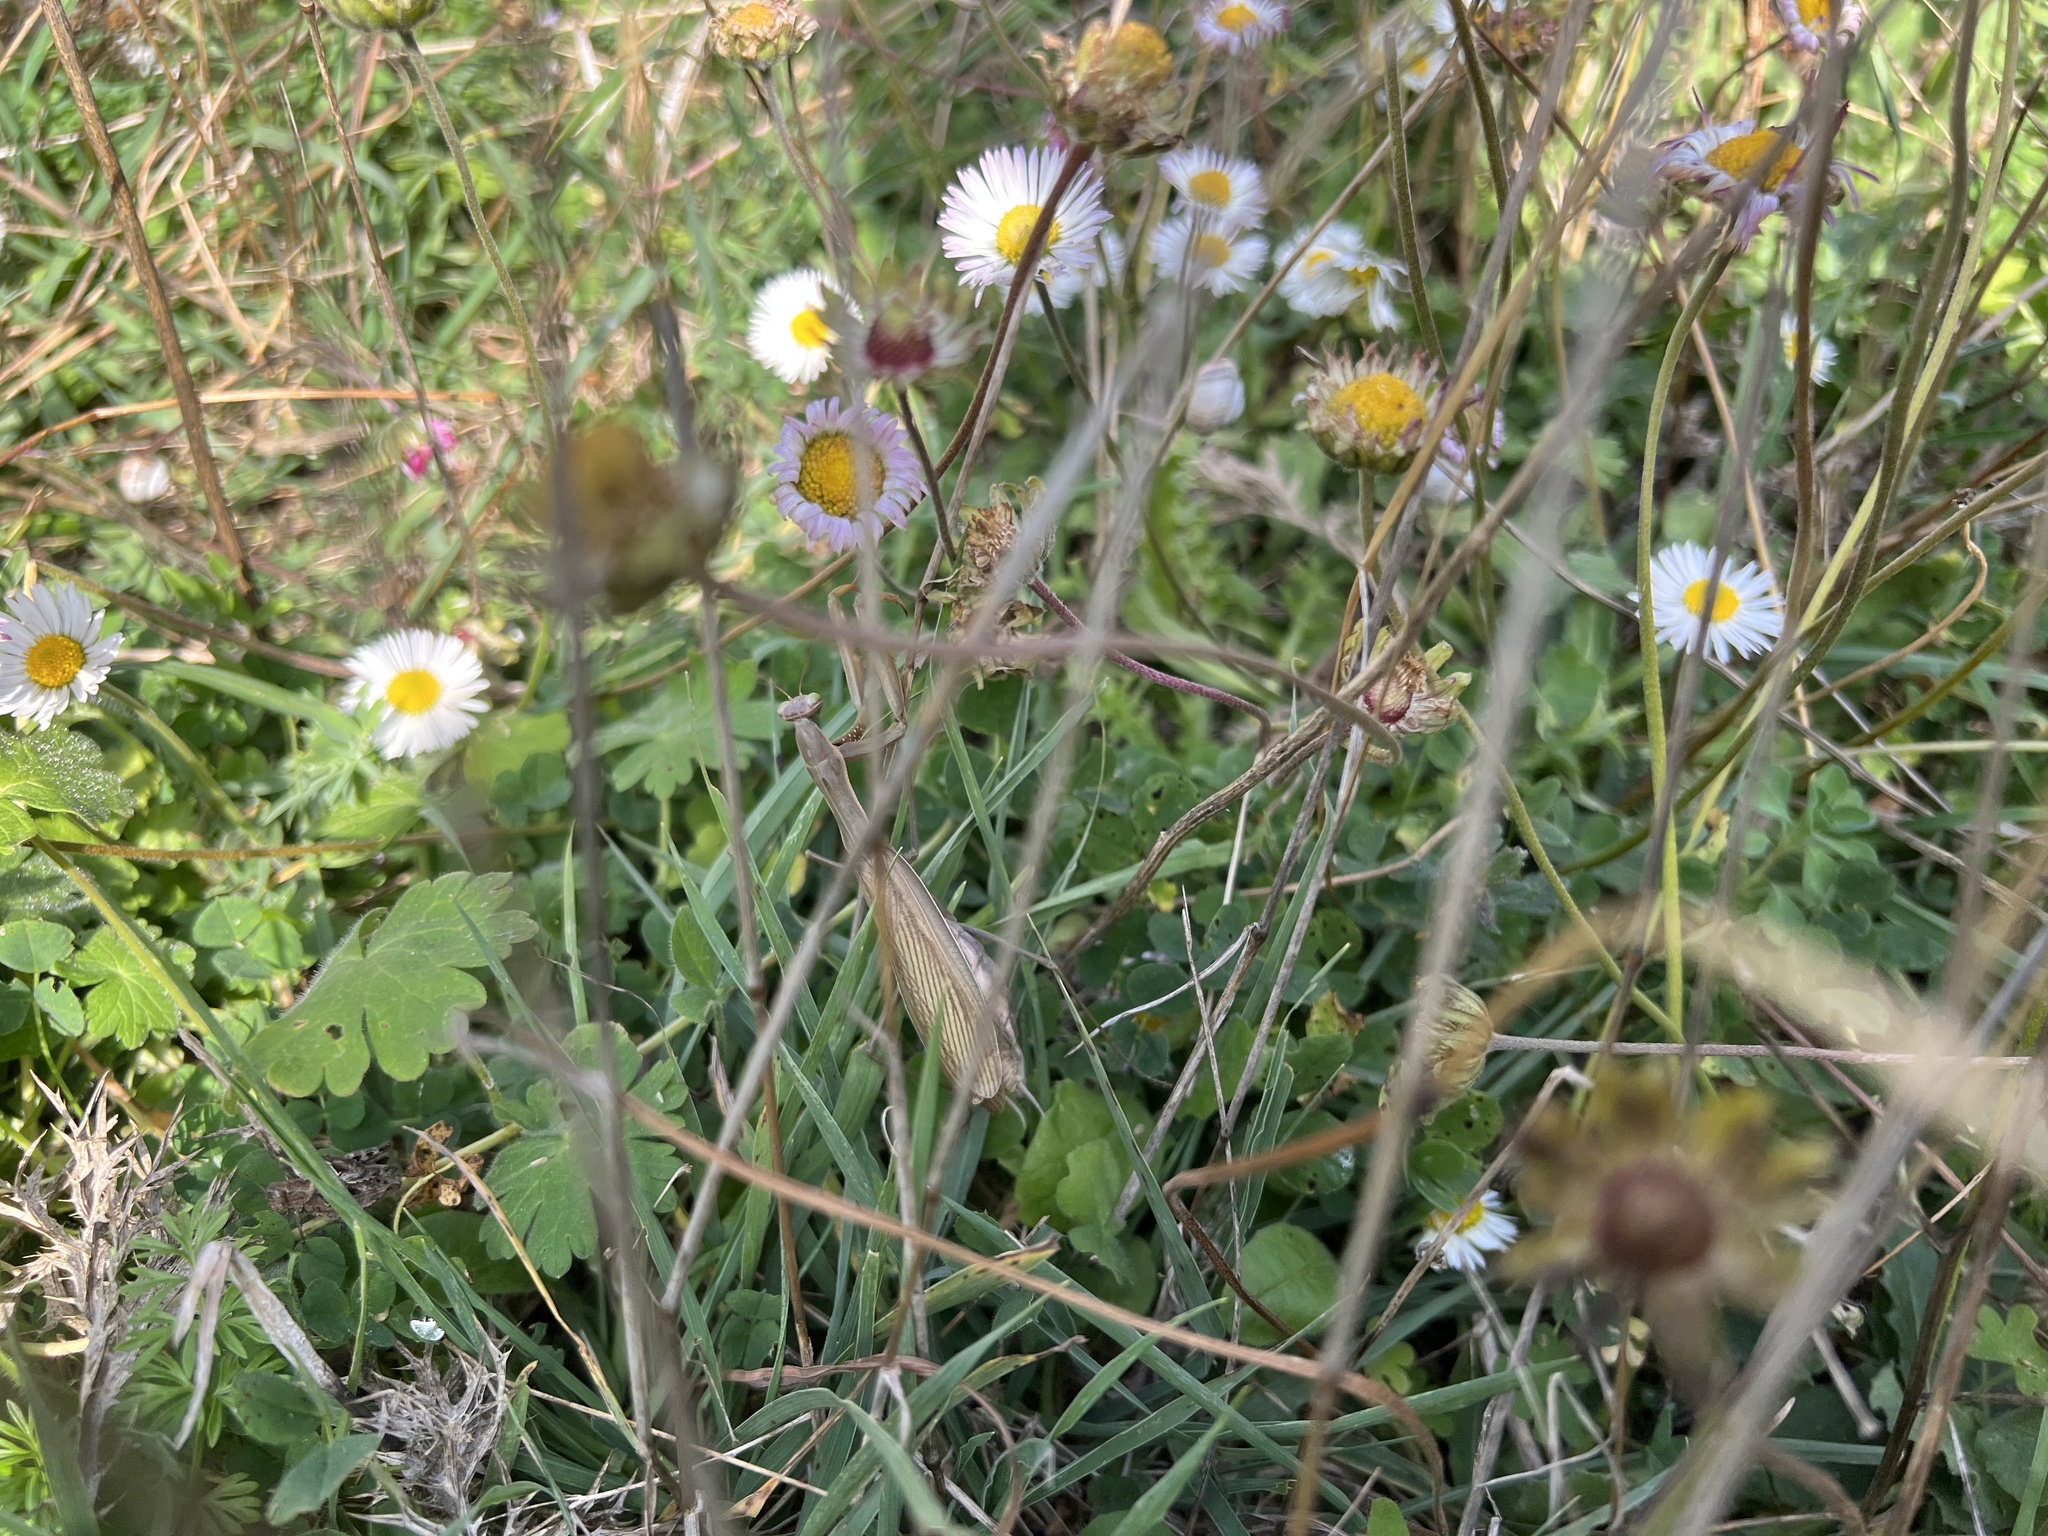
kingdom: Animalia
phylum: Arthropoda
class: Insecta
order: Mantodea
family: Mantidae
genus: Mantis
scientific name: Mantis religiosa
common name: Praying mantis
